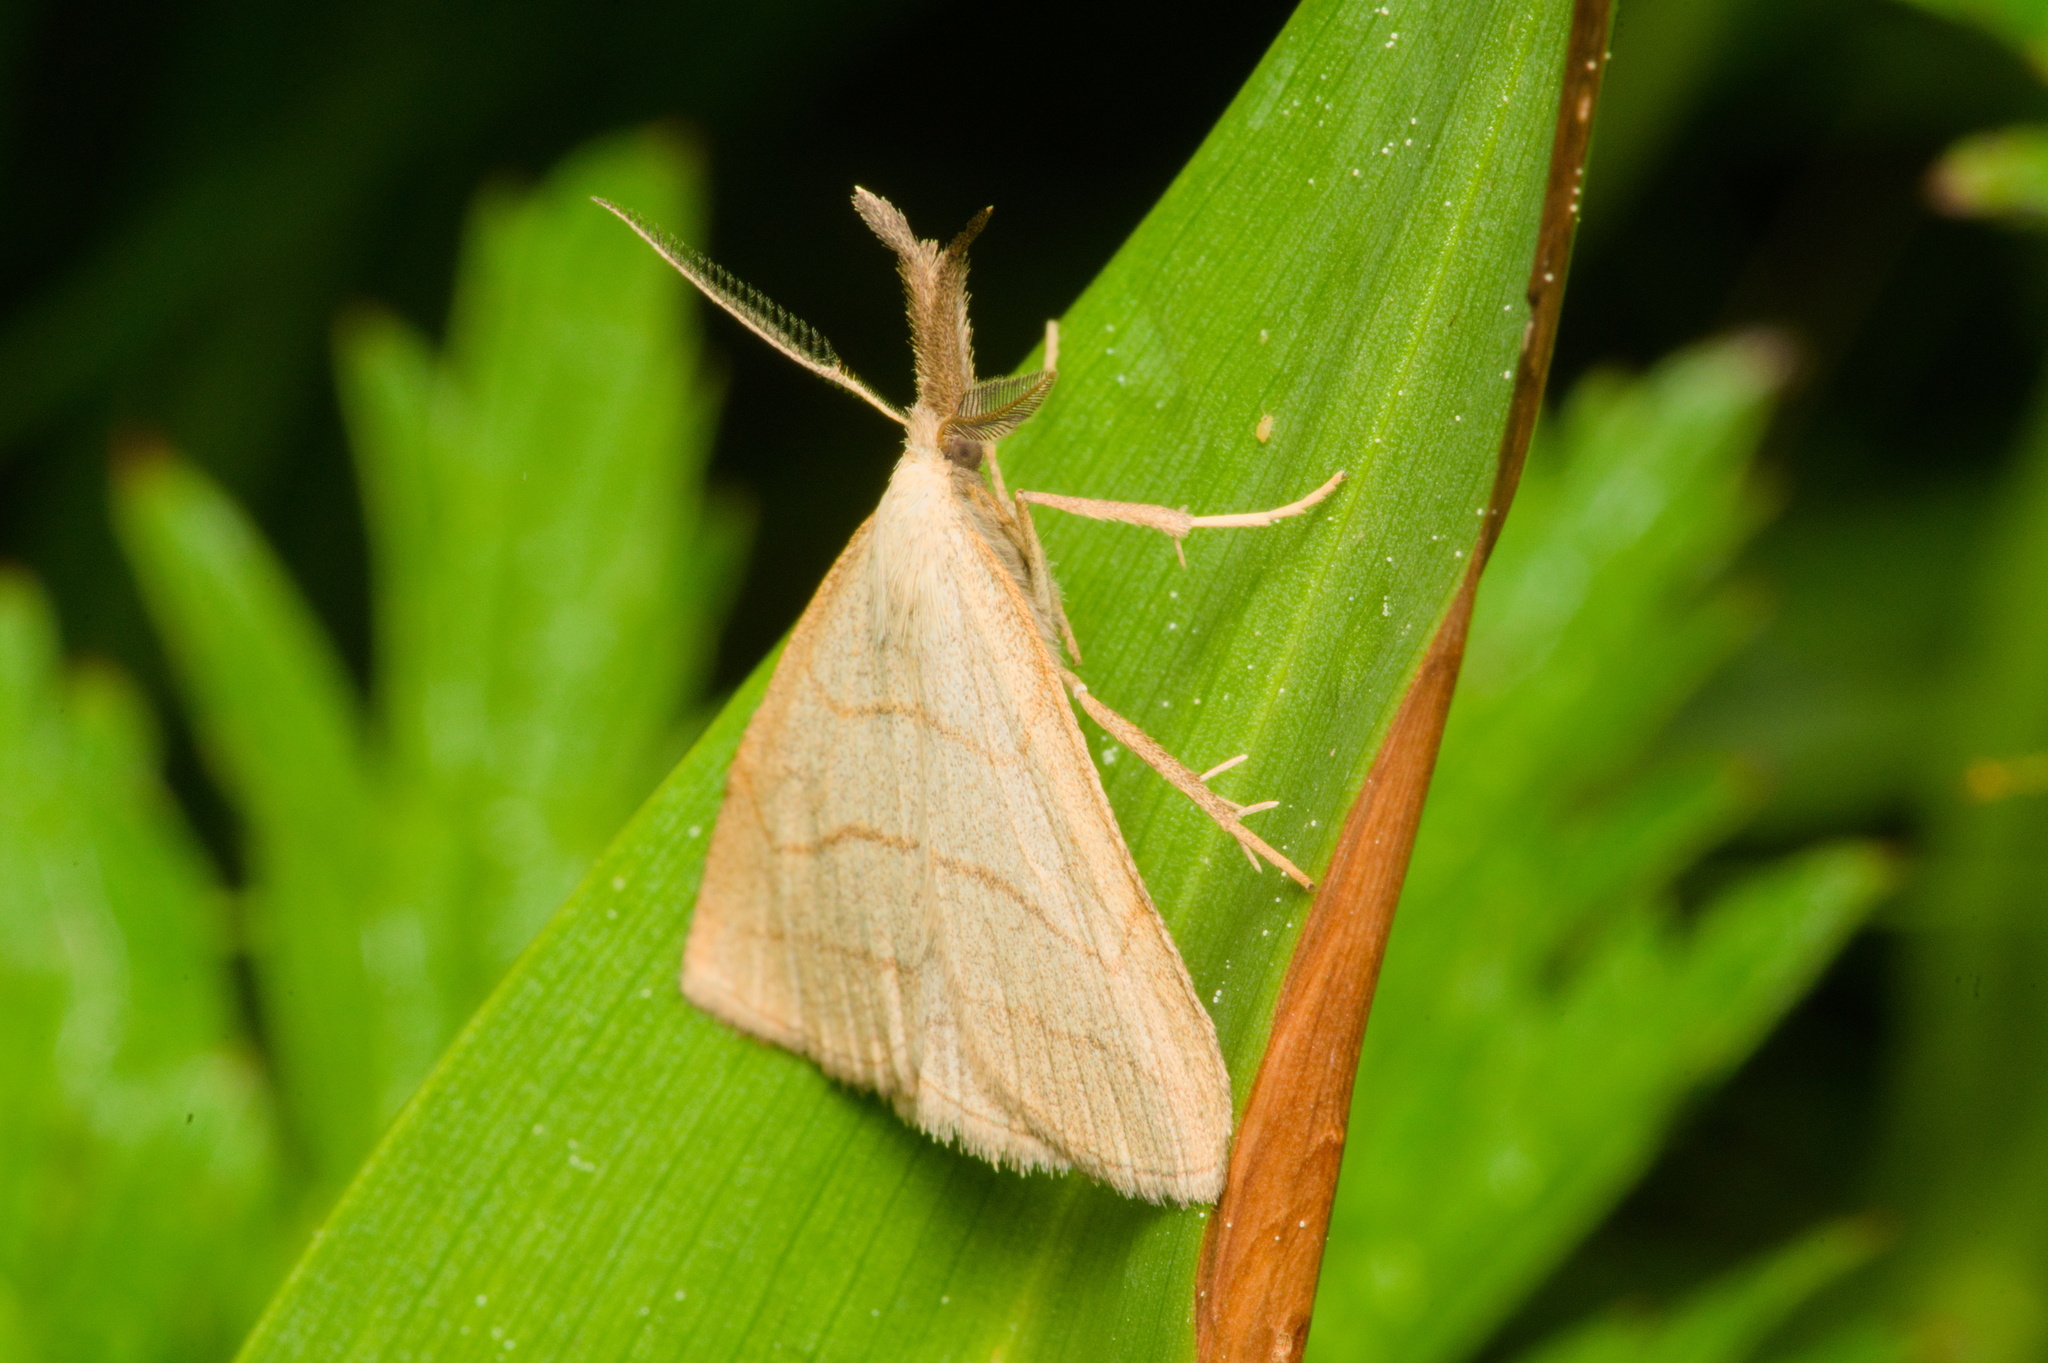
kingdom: Animalia
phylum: Arthropoda
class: Insecta
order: Lepidoptera
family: Erebidae
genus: Polypogon
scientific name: Polypogon tentacularia
